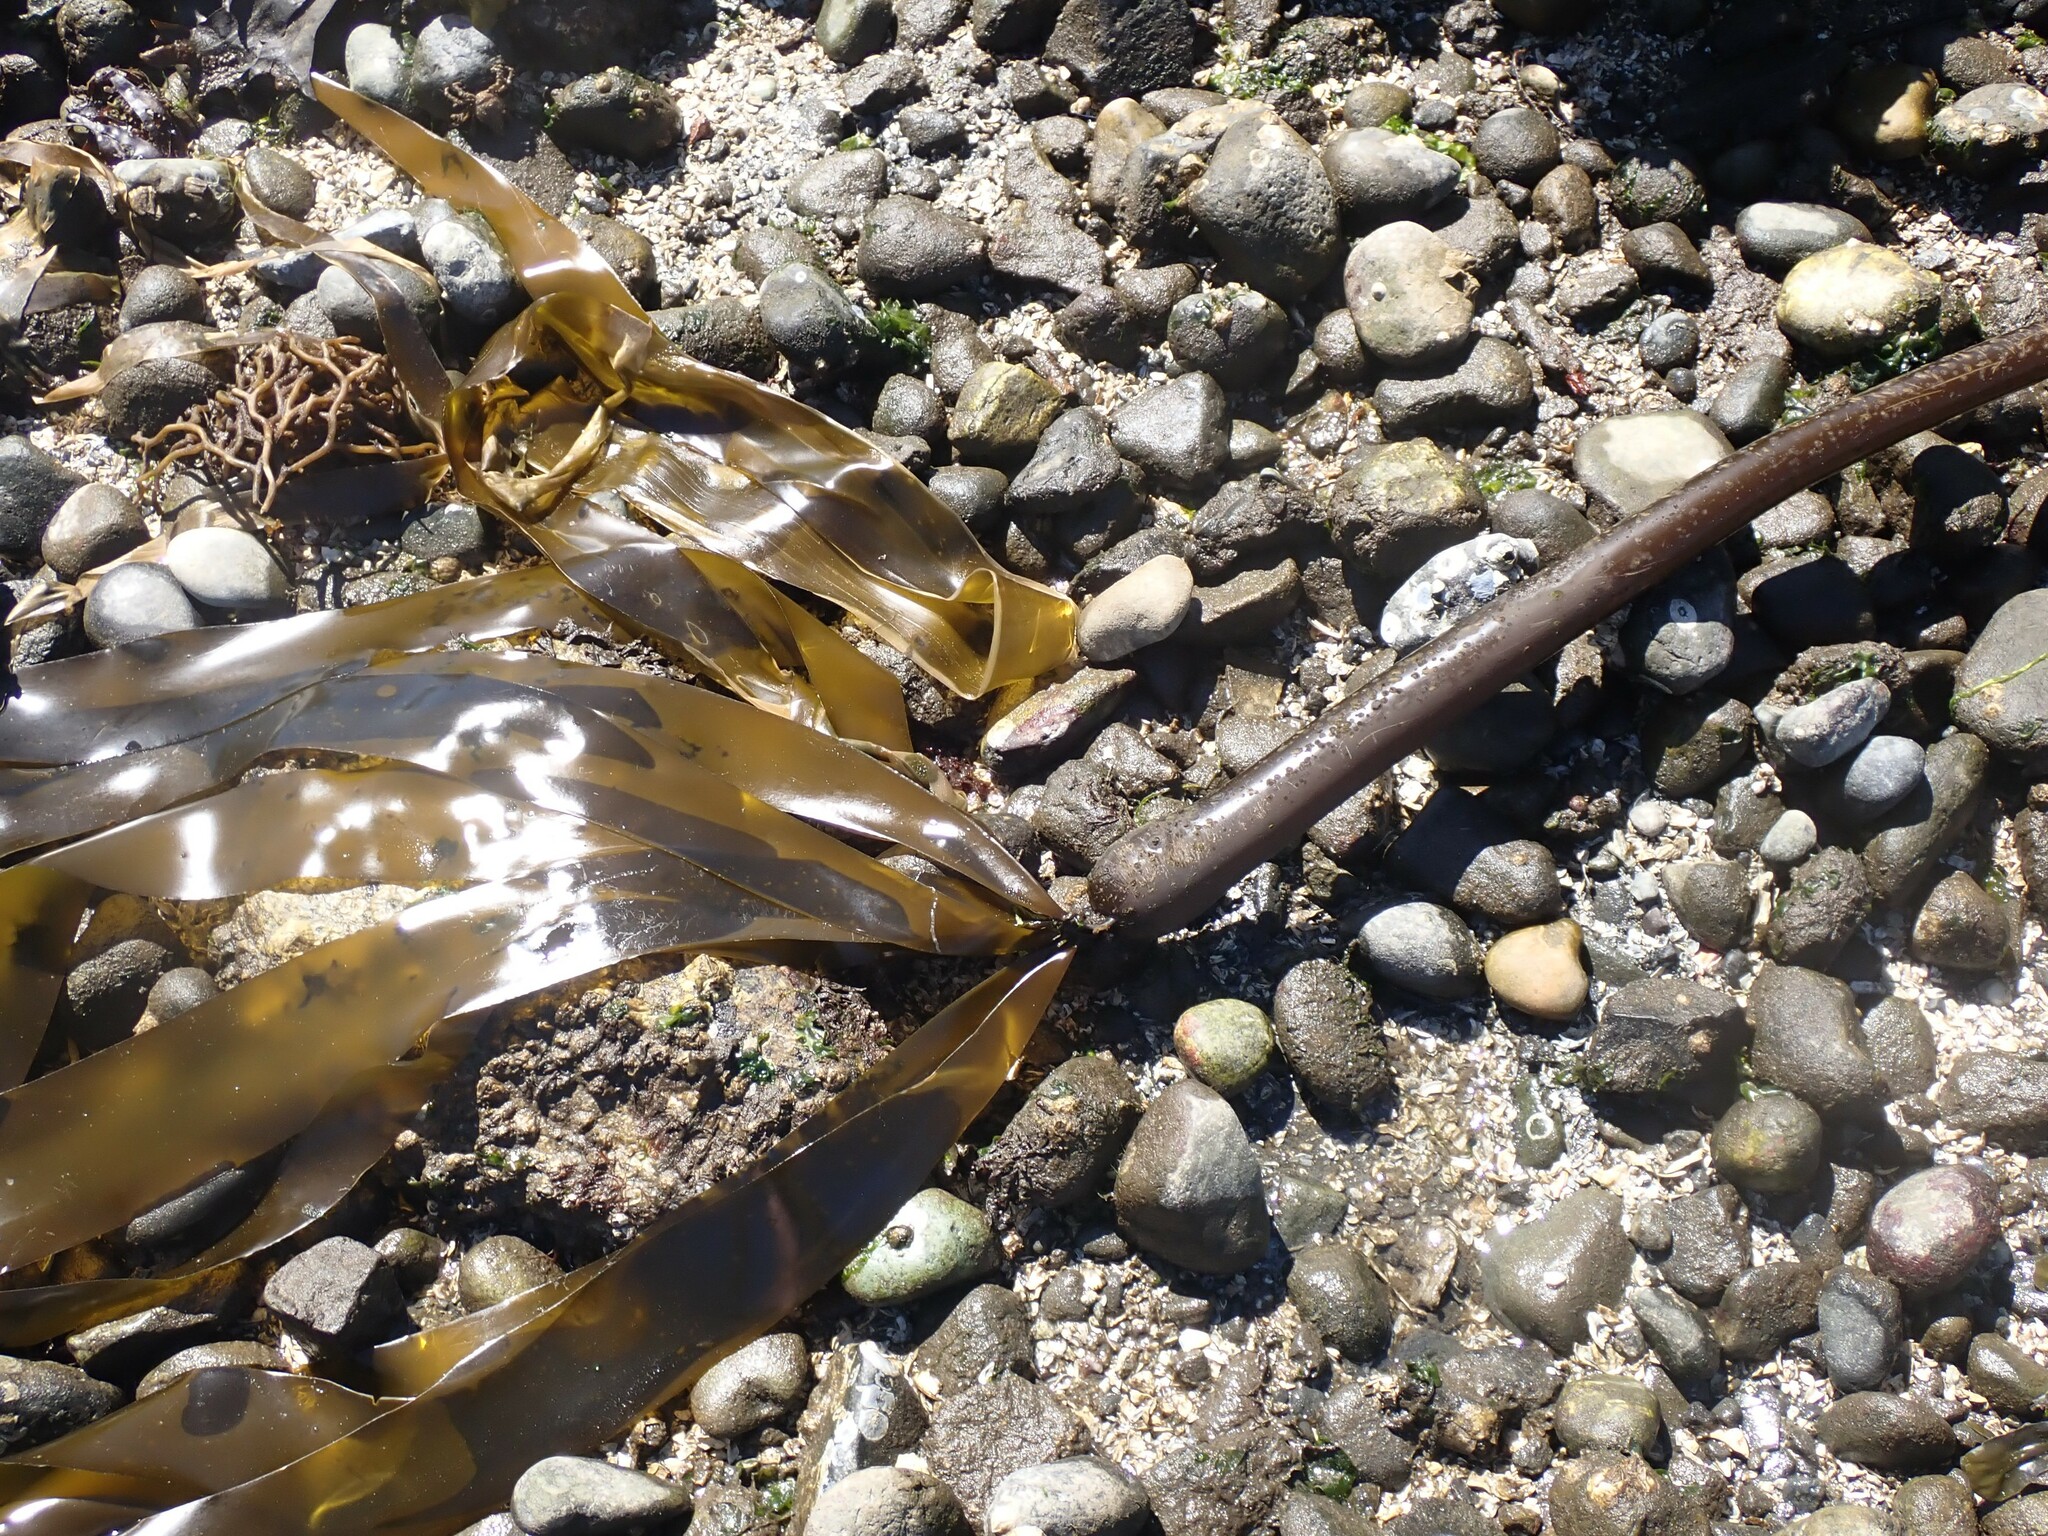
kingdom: Chromista
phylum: Ochrophyta
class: Phaeophyceae
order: Laminariales
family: Laminariaceae
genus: Nereocystis
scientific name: Nereocystis luetkeana
